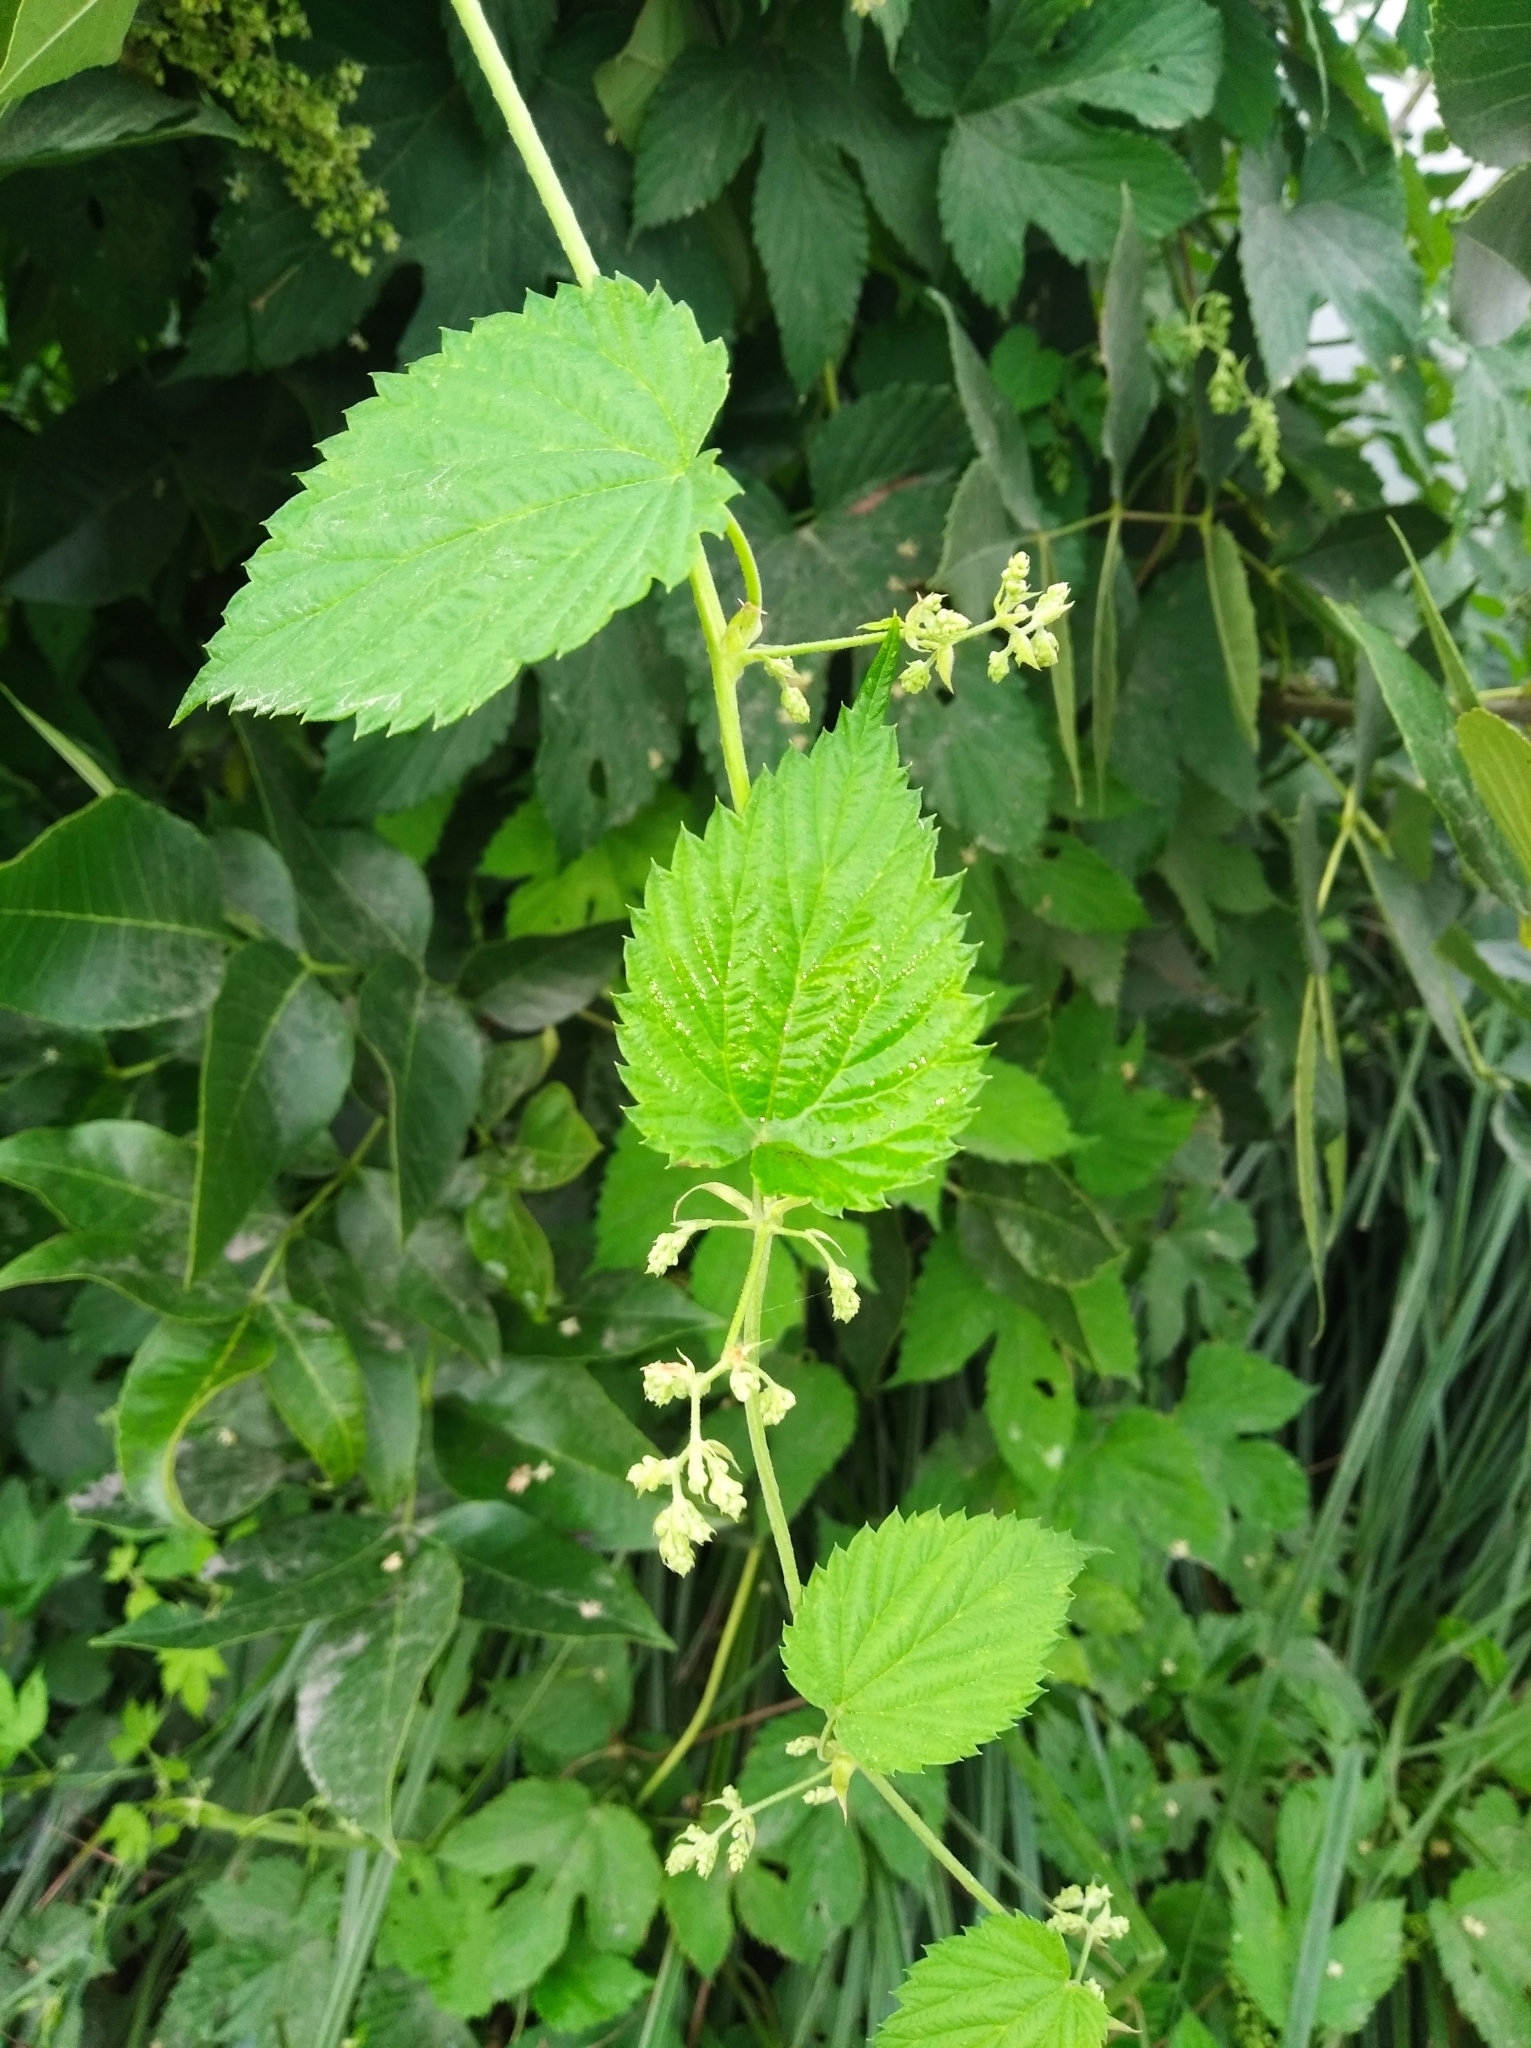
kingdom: Plantae
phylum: Tracheophyta
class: Magnoliopsida
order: Rosales
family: Cannabaceae
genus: Humulus
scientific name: Humulus lupulus
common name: Hop
